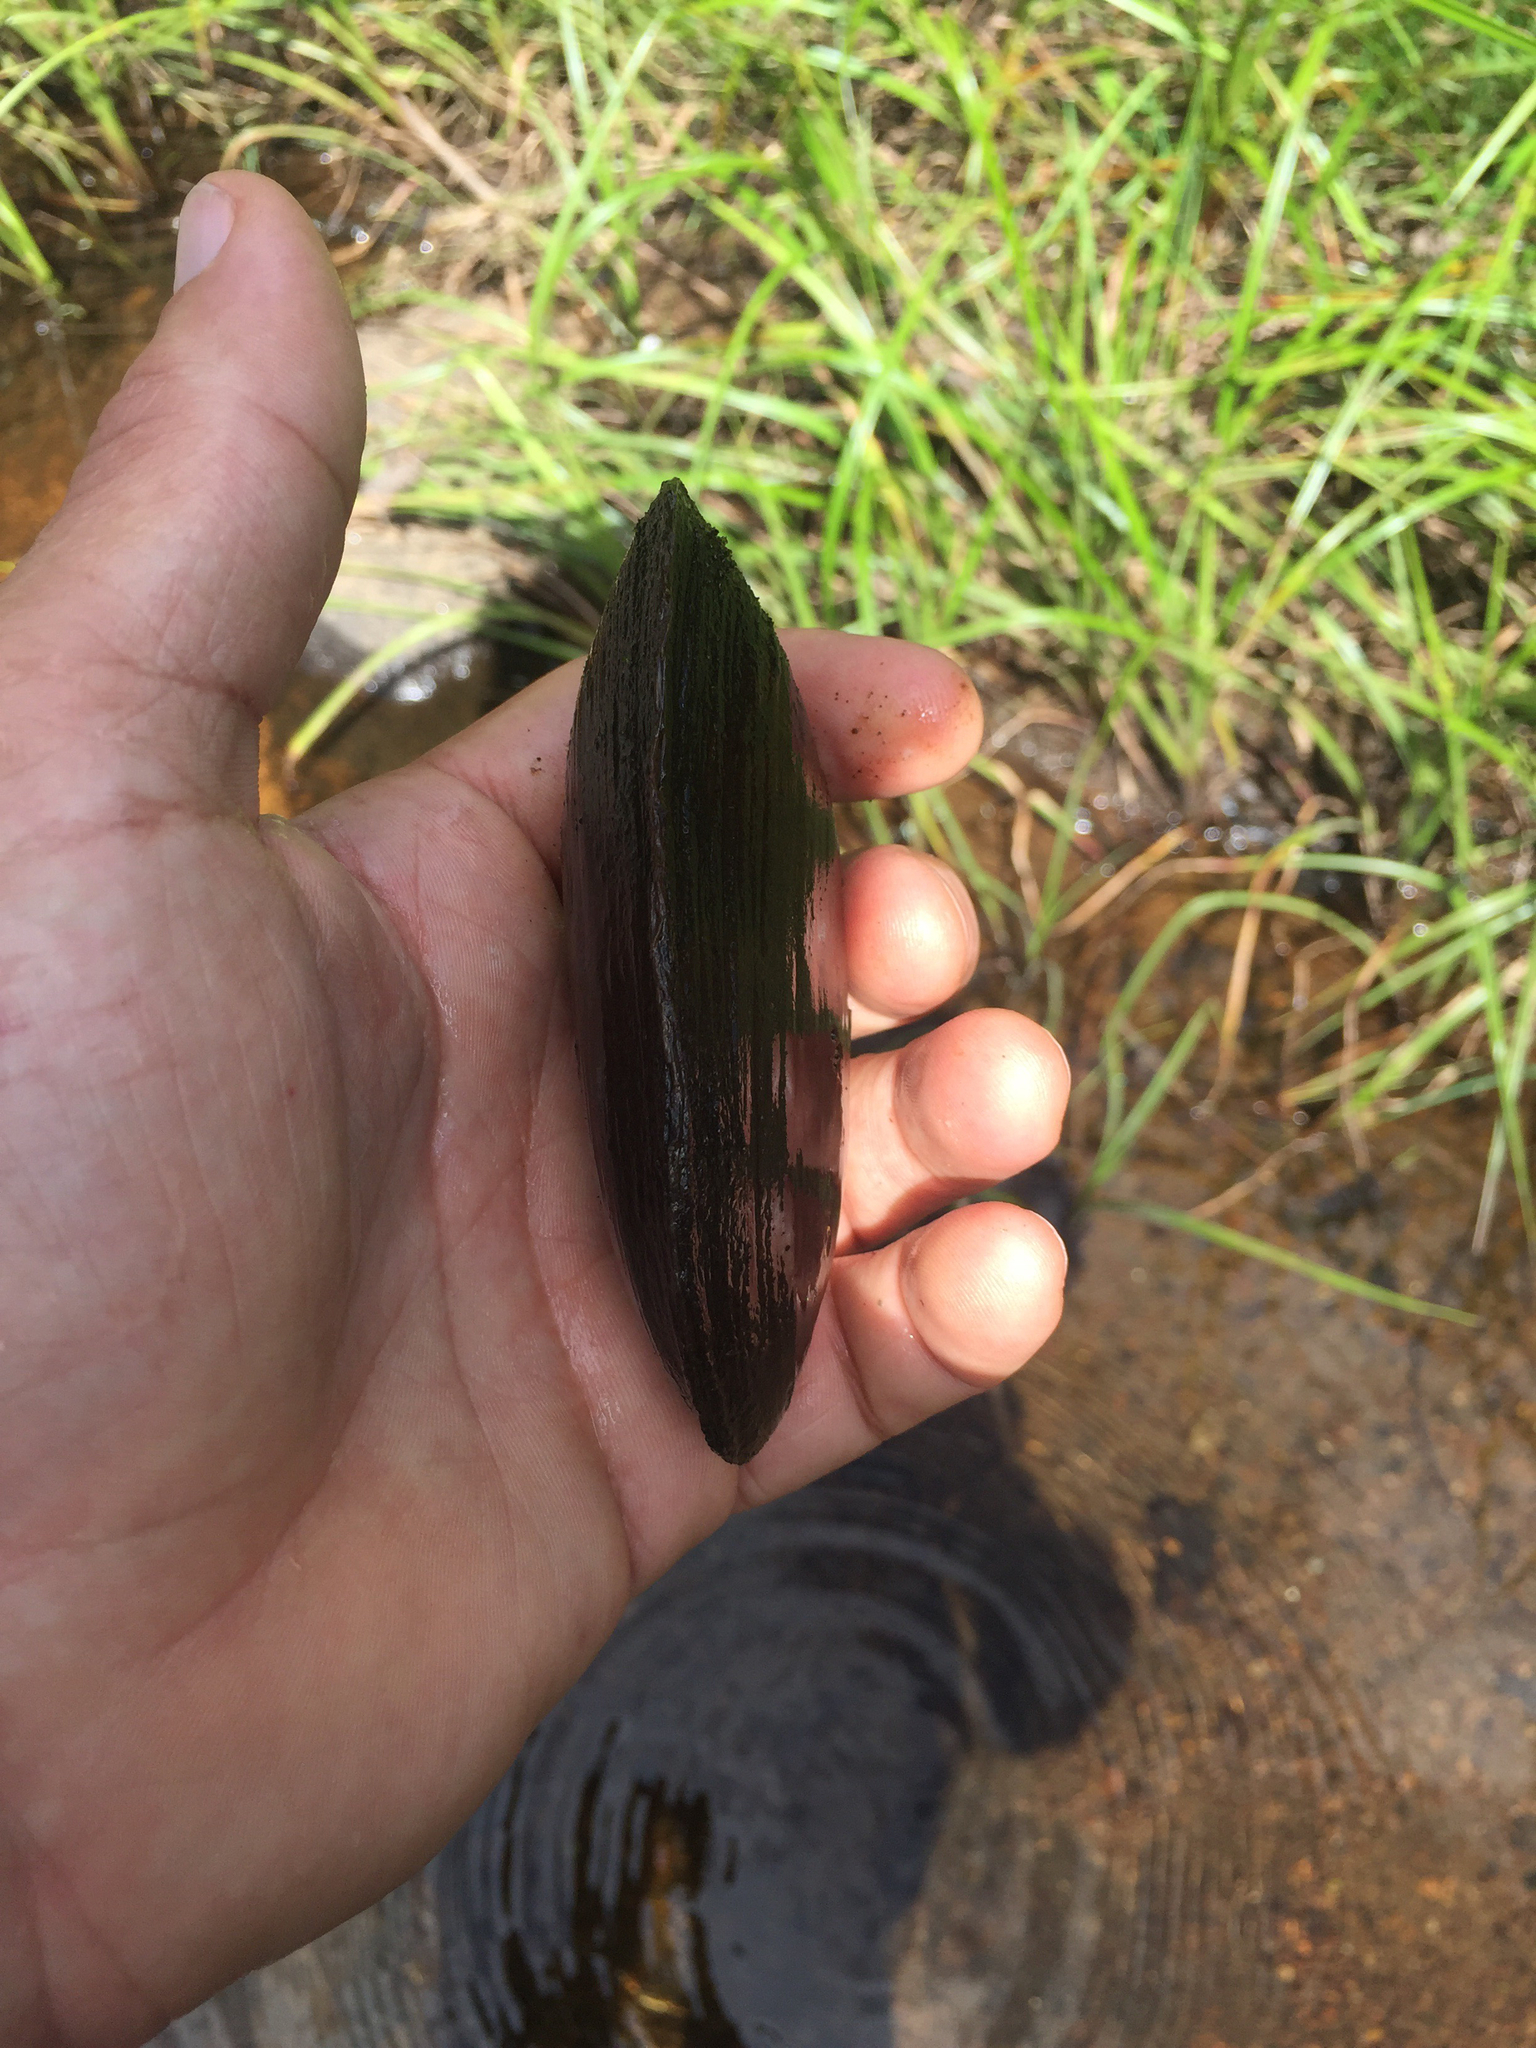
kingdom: Animalia
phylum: Mollusca
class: Bivalvia
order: Unionida
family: Unionidae
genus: Elliptio
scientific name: Elliptio complanata
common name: Eastern elliptio
